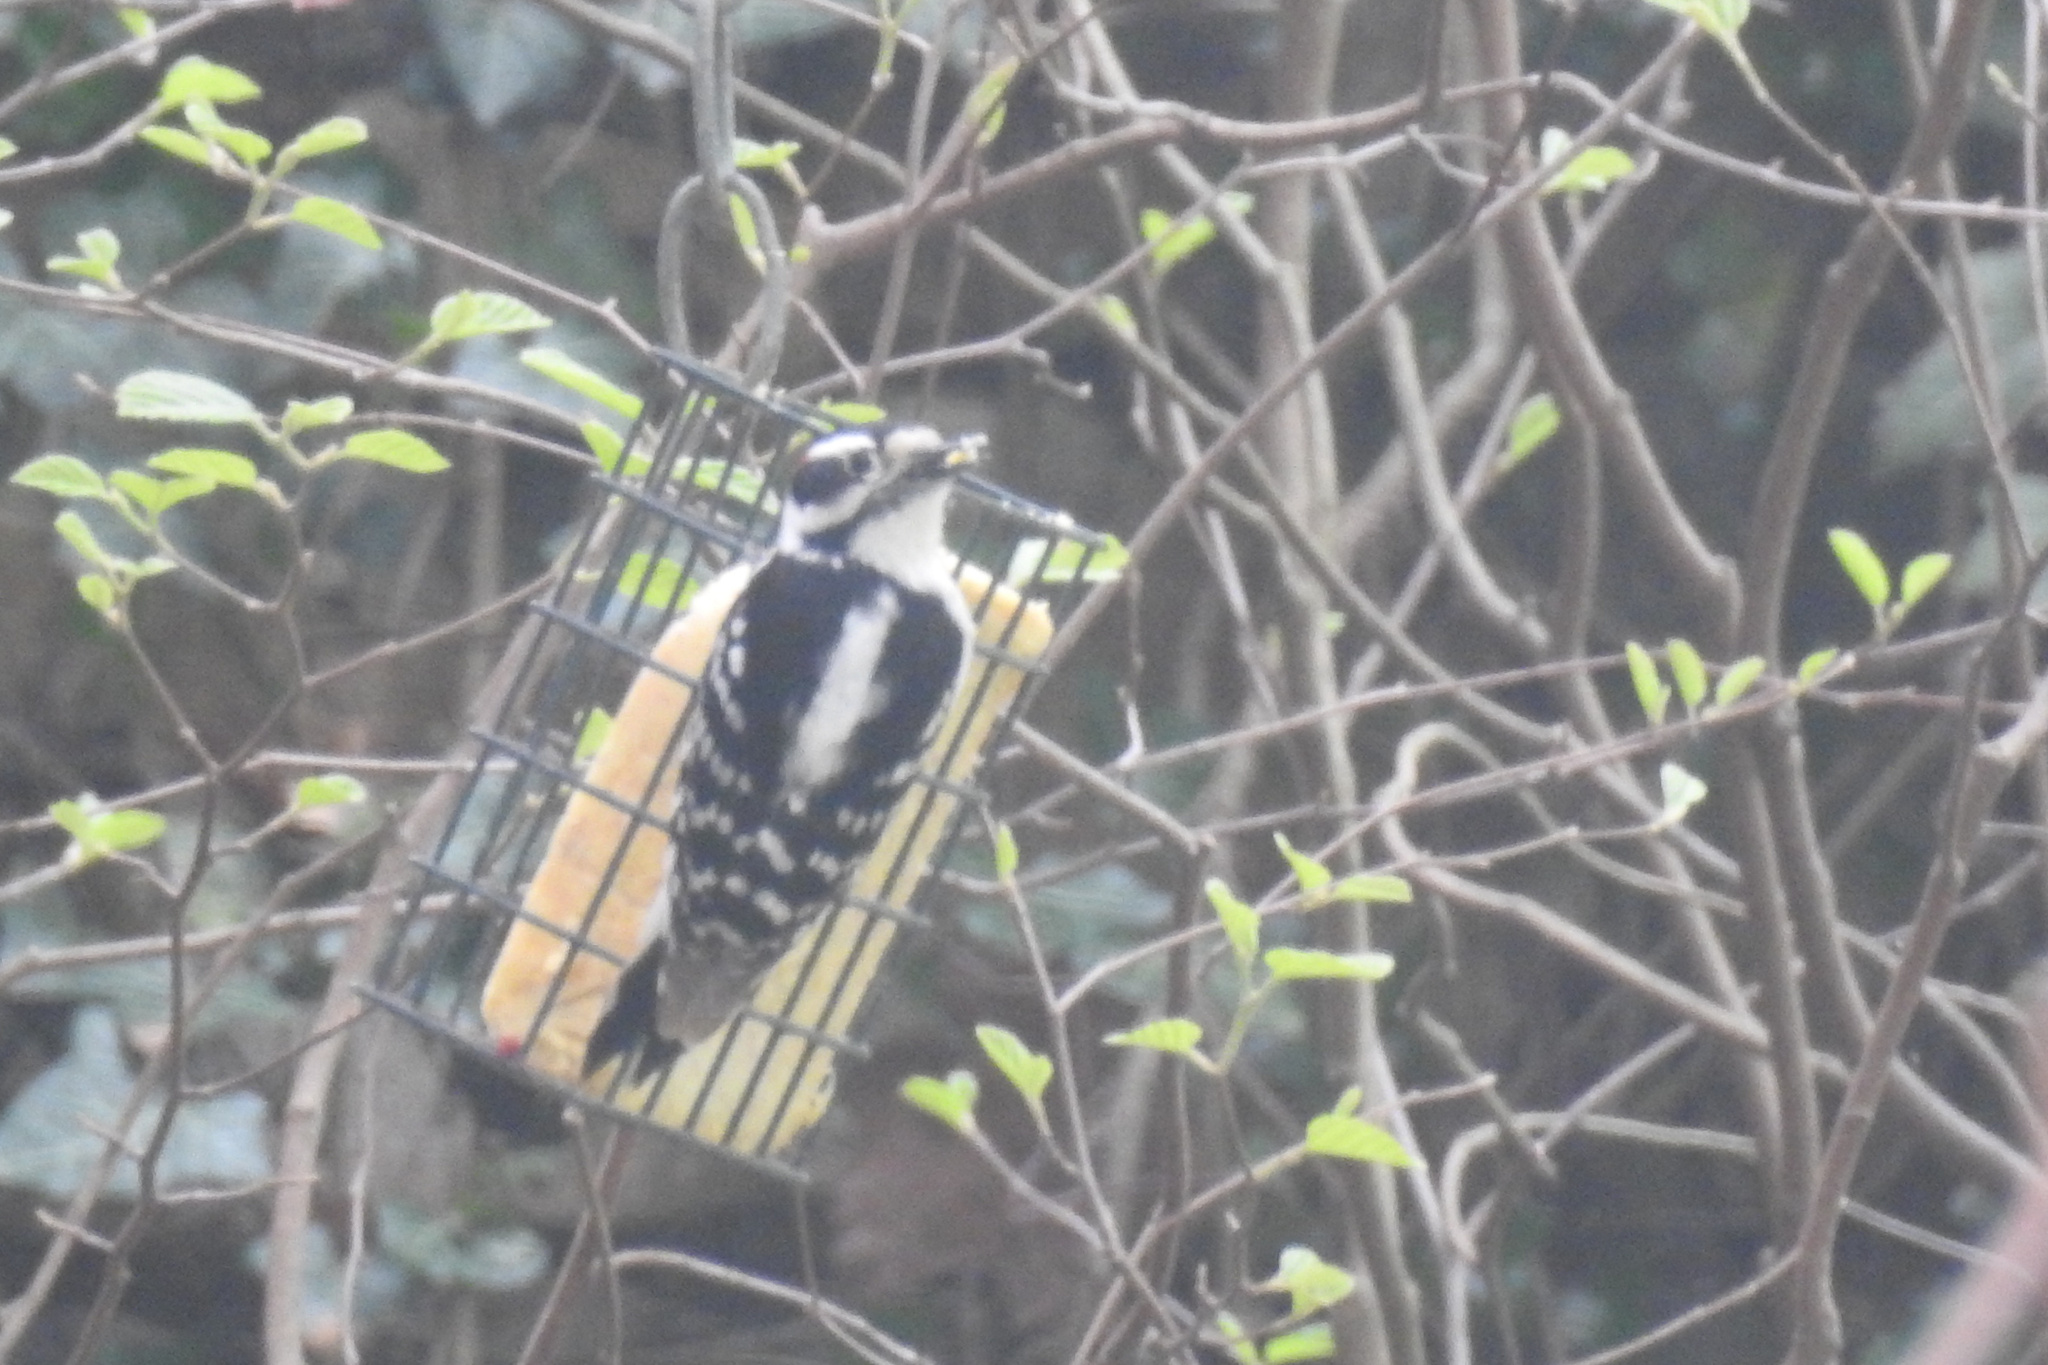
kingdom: Animalia
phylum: Chordata
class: Aves
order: Piciformes
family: Picidae
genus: Dryobates
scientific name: Dryobates pubescens
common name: Downy woodpecker
